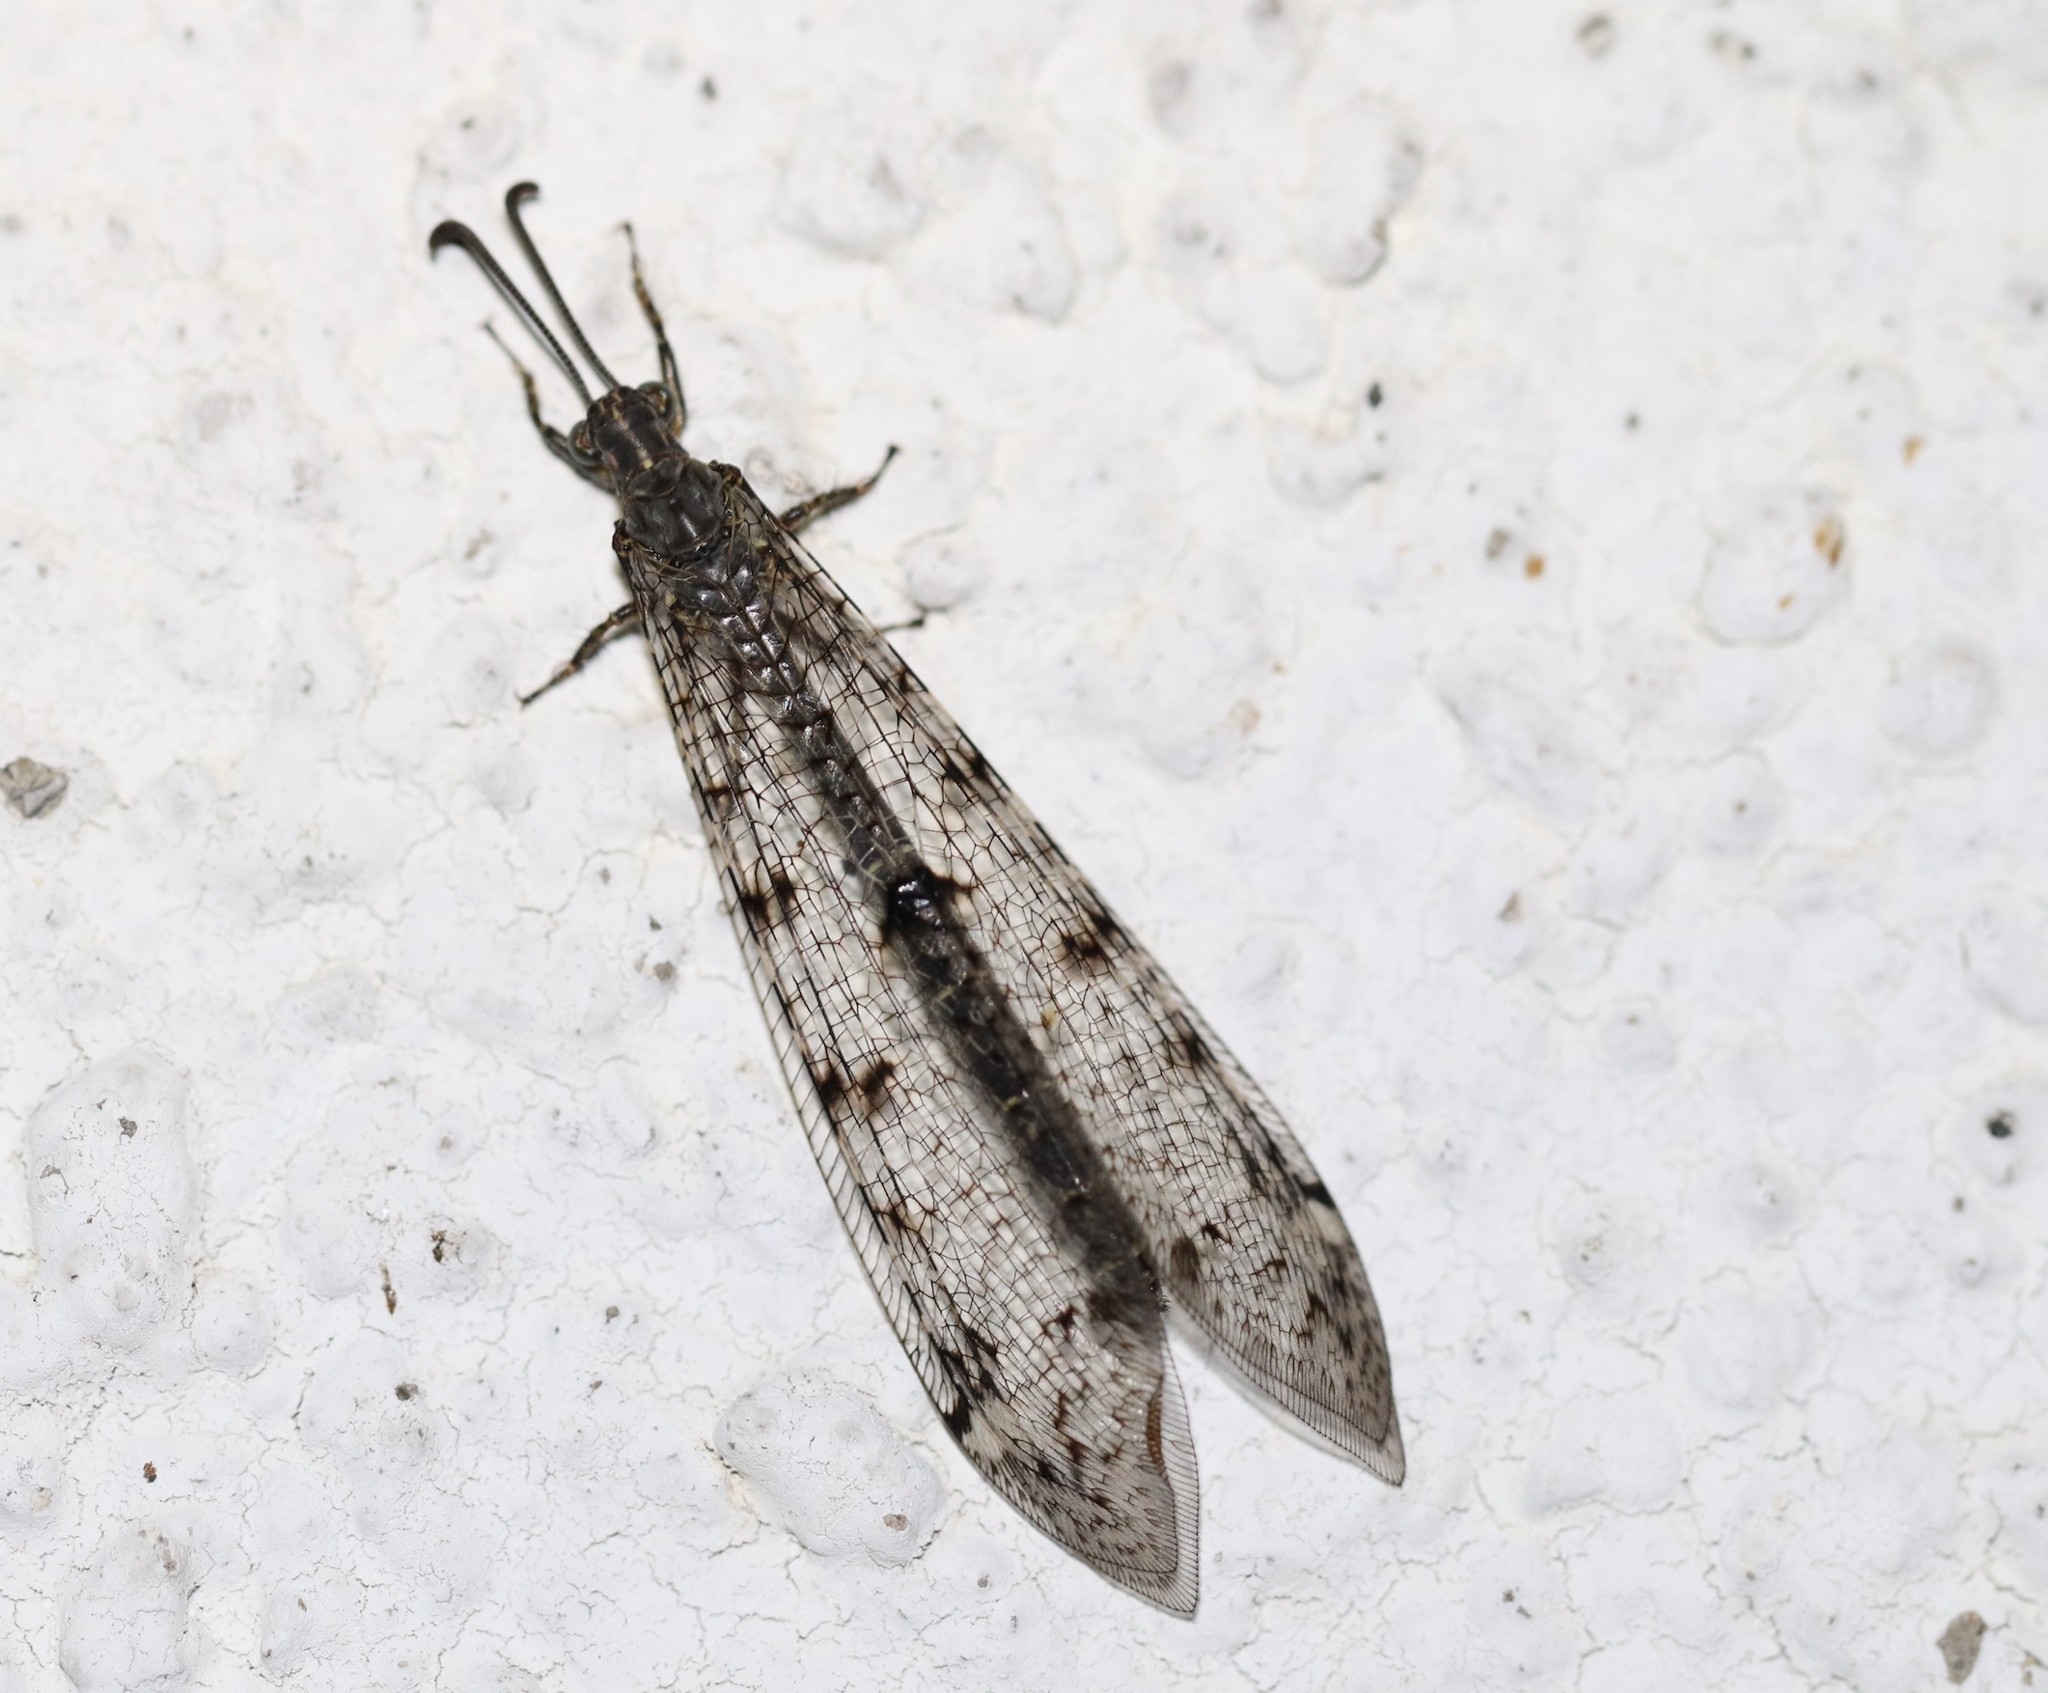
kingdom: Animalia
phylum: Arthropoda
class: Insecta
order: Neuroptera
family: Myrmeleontidae
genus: Distoleon
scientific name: Distoleon tetragrammicus
